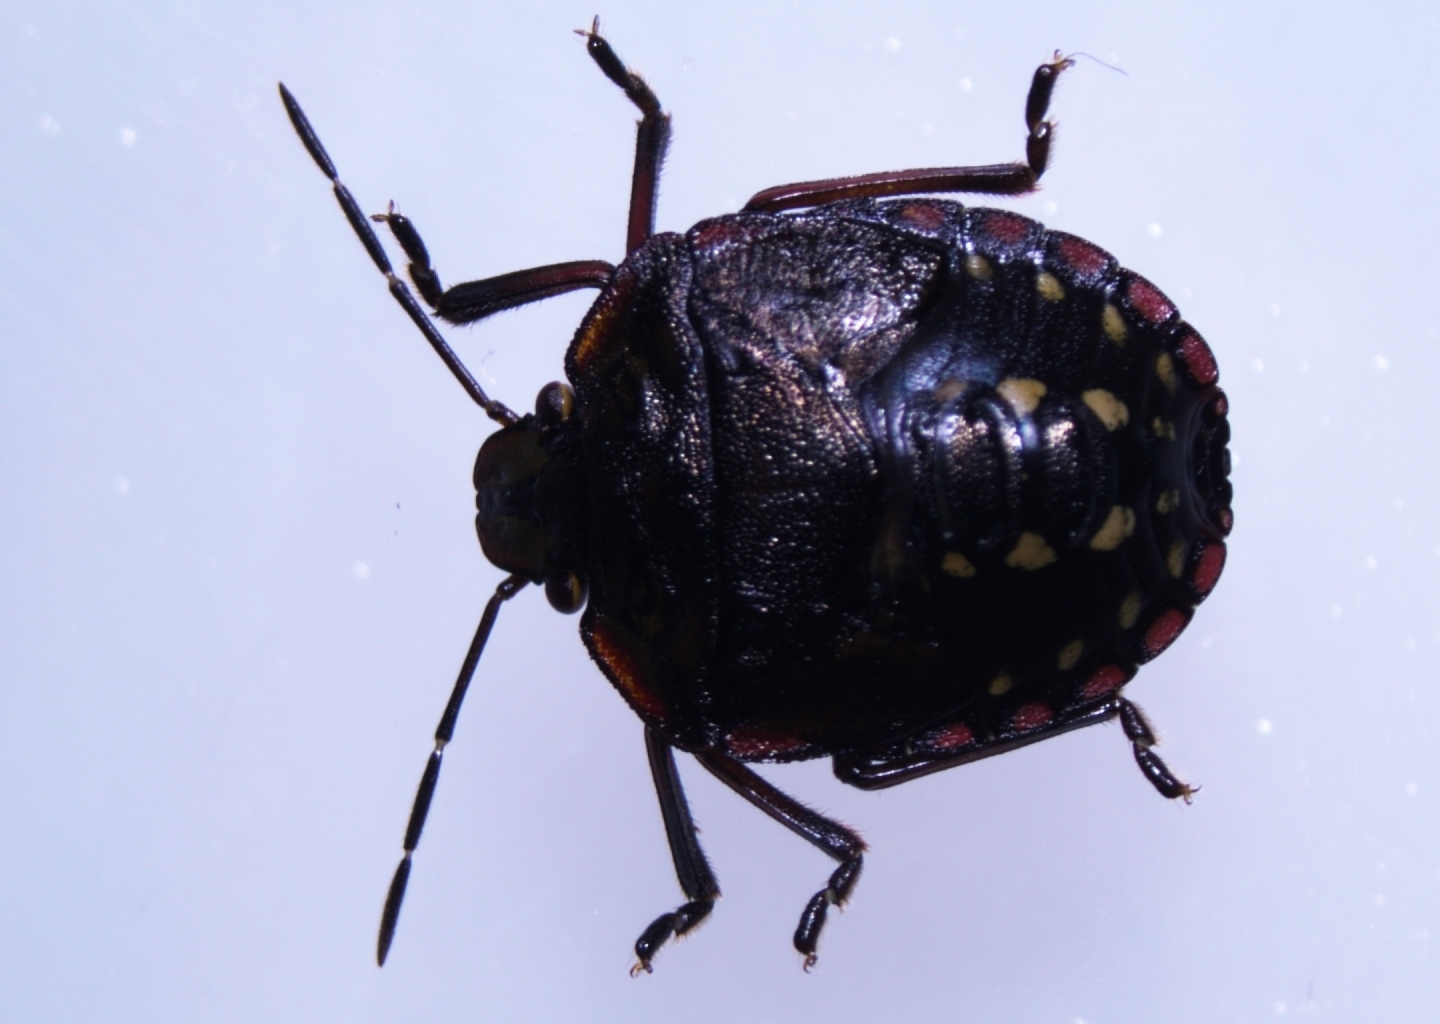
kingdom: Animalia
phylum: Arthropoda
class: Insecta
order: Hemiptera
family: Pentatomidae
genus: Nezara
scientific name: Nezara viridula
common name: Southern green stink bug
